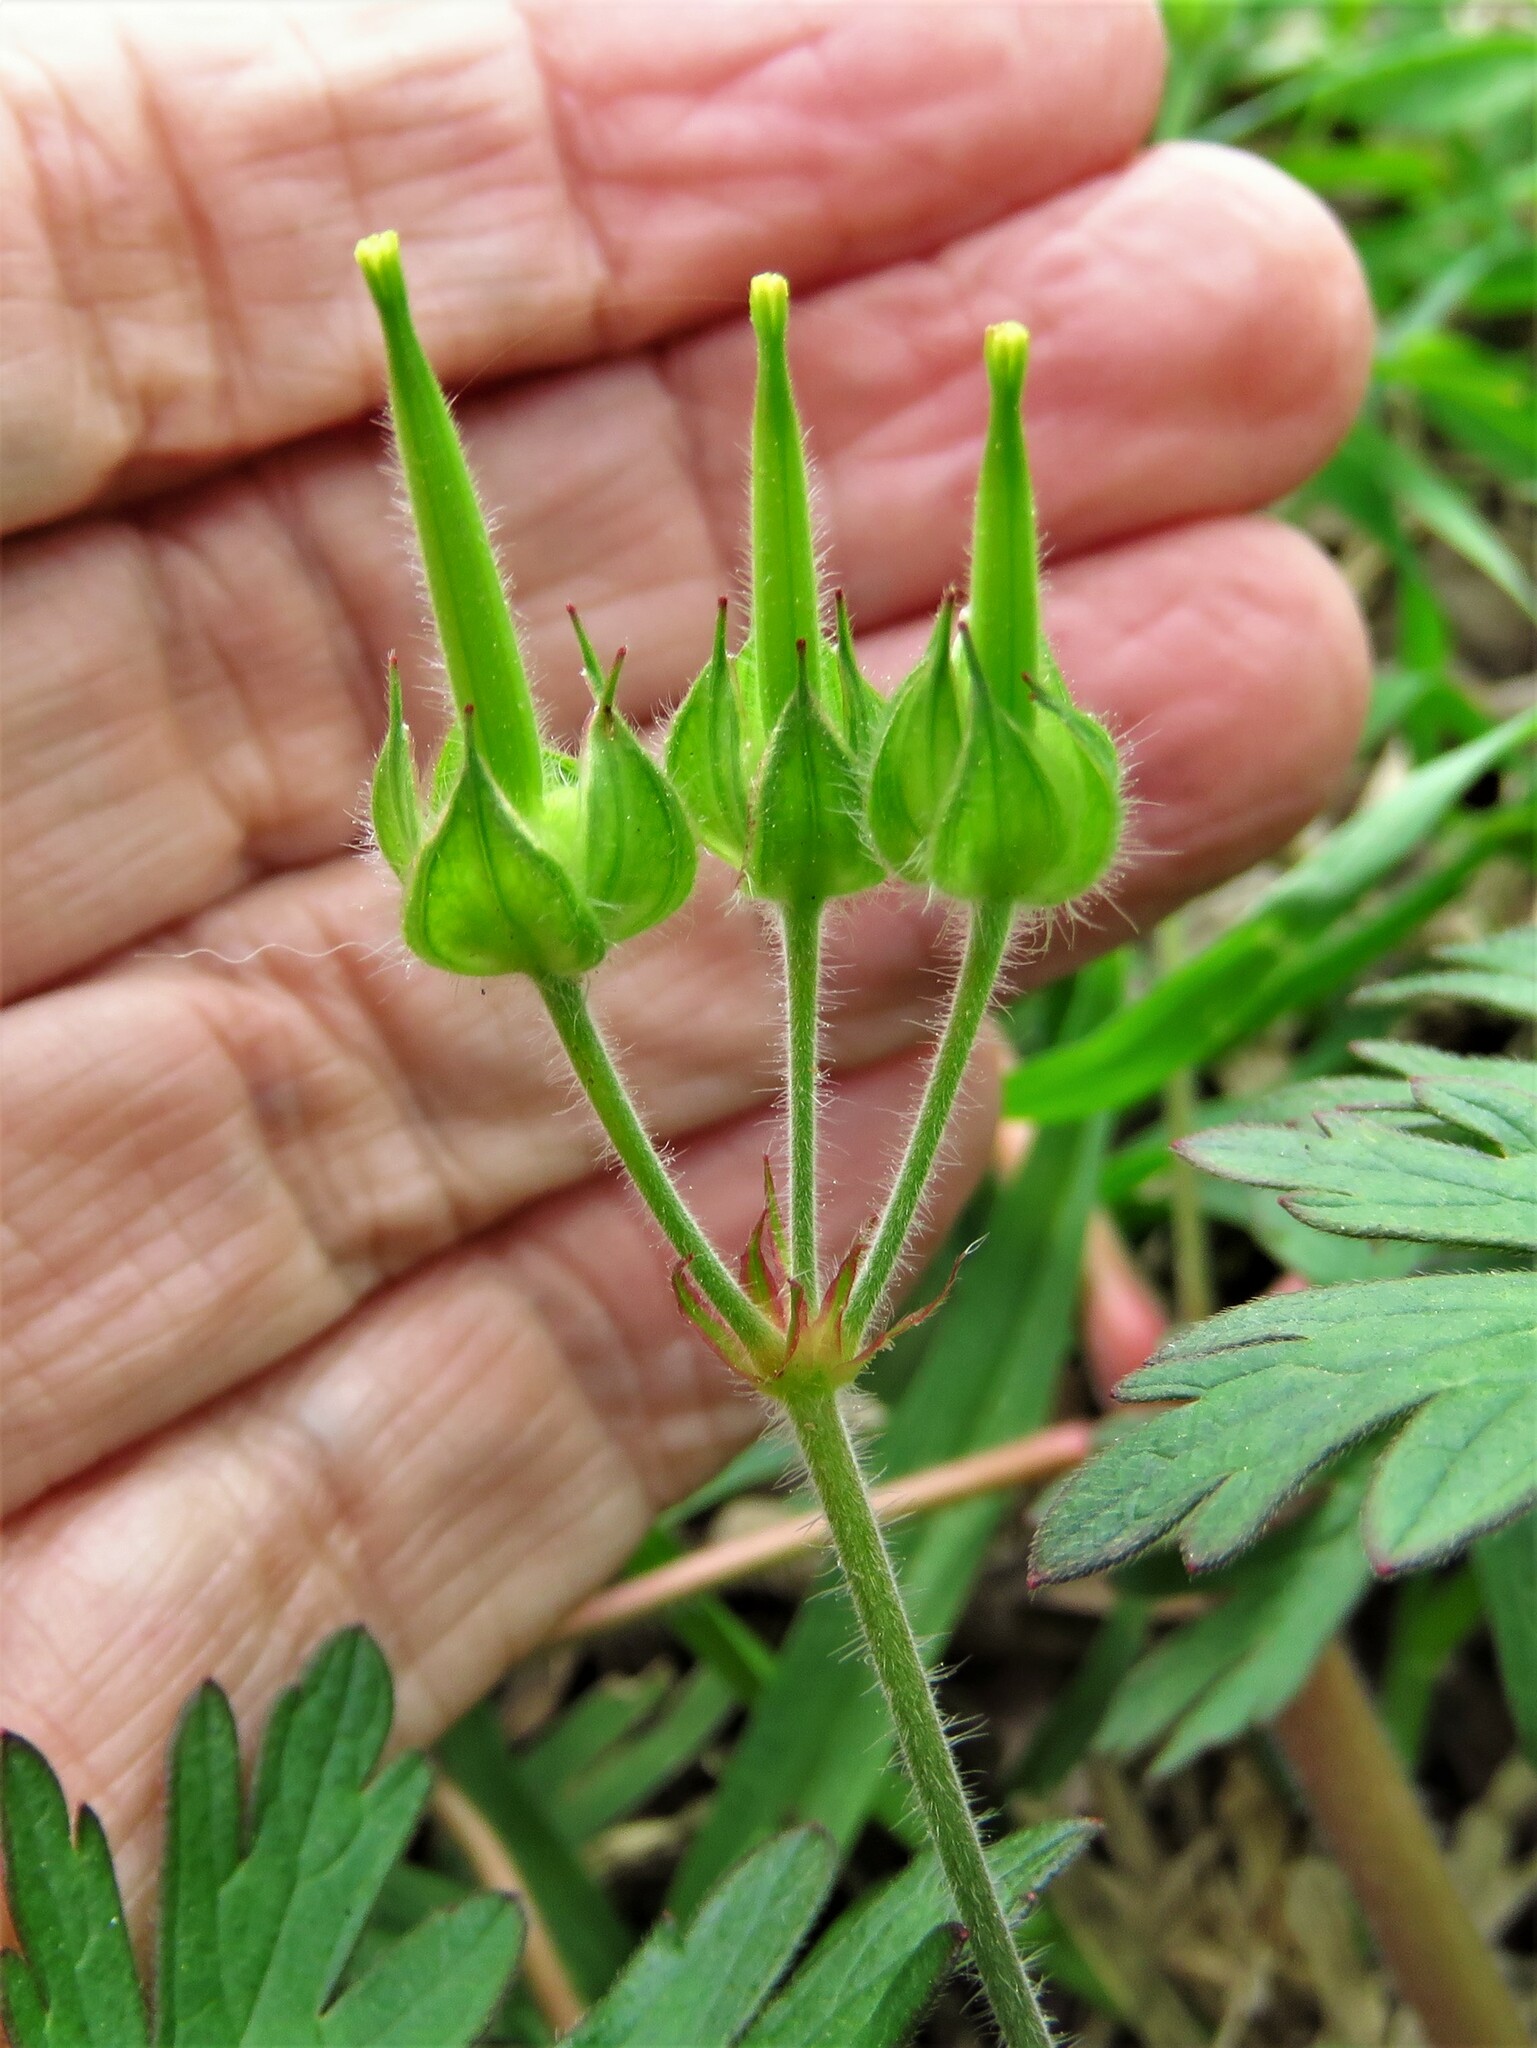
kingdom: Plantae
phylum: Tracheophyta
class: Magnoliopsida
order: Geraniales
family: Geraniaceae
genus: Geranium
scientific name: Geranium carolinianum
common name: Carolina crane's-bill
